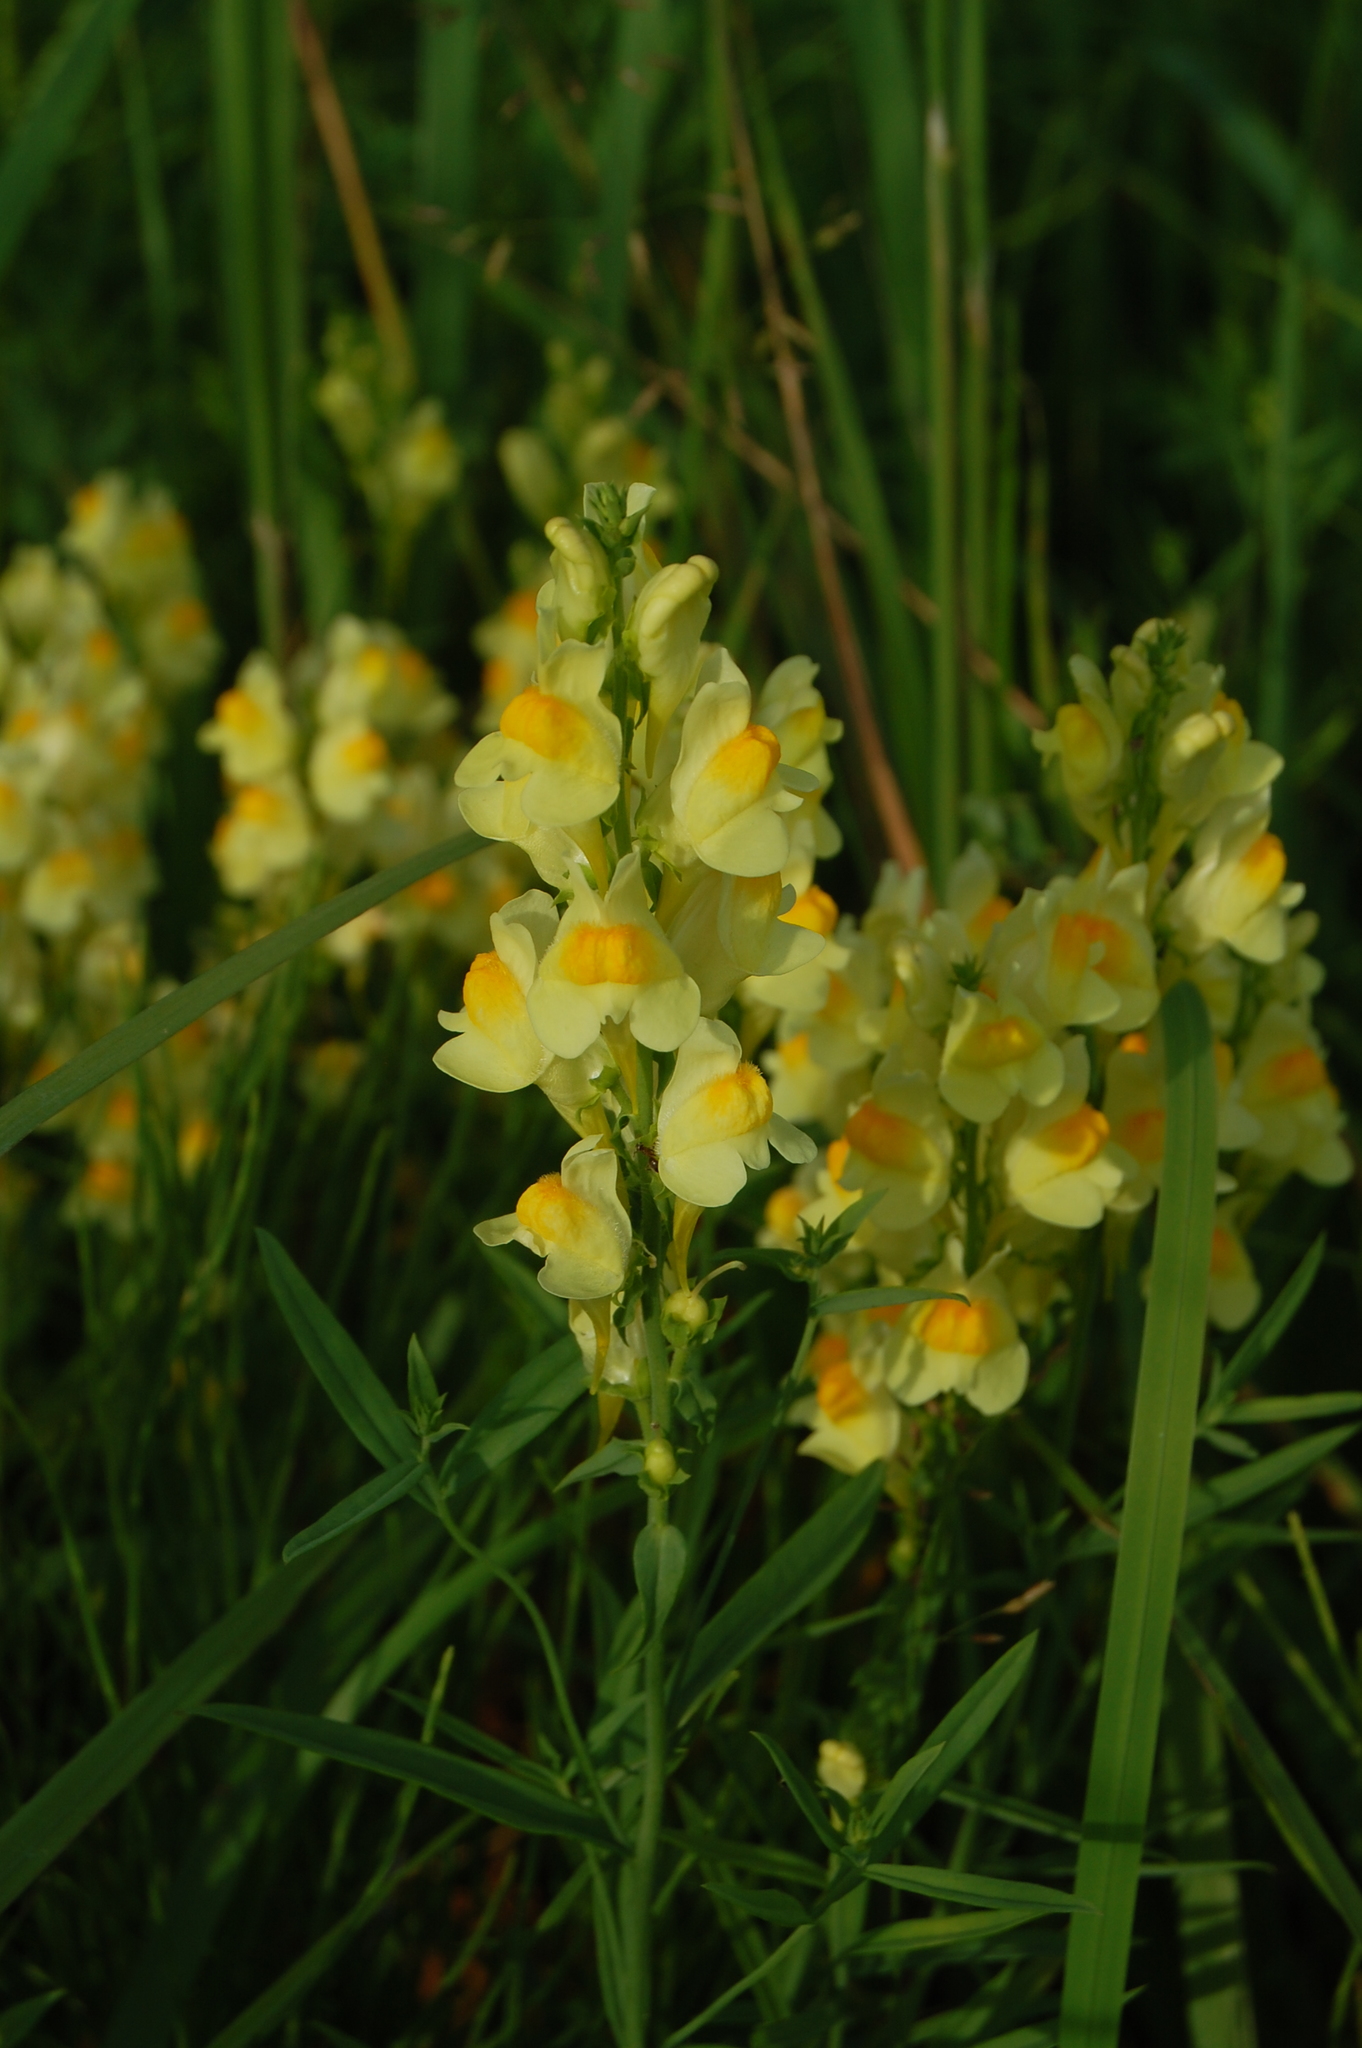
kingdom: Plantae
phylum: Tracheophyta
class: Magnoliopsida
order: Lamiales
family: Plantaginaceae
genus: Linaria
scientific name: Linaria vulgaris
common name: Butter and eggs
